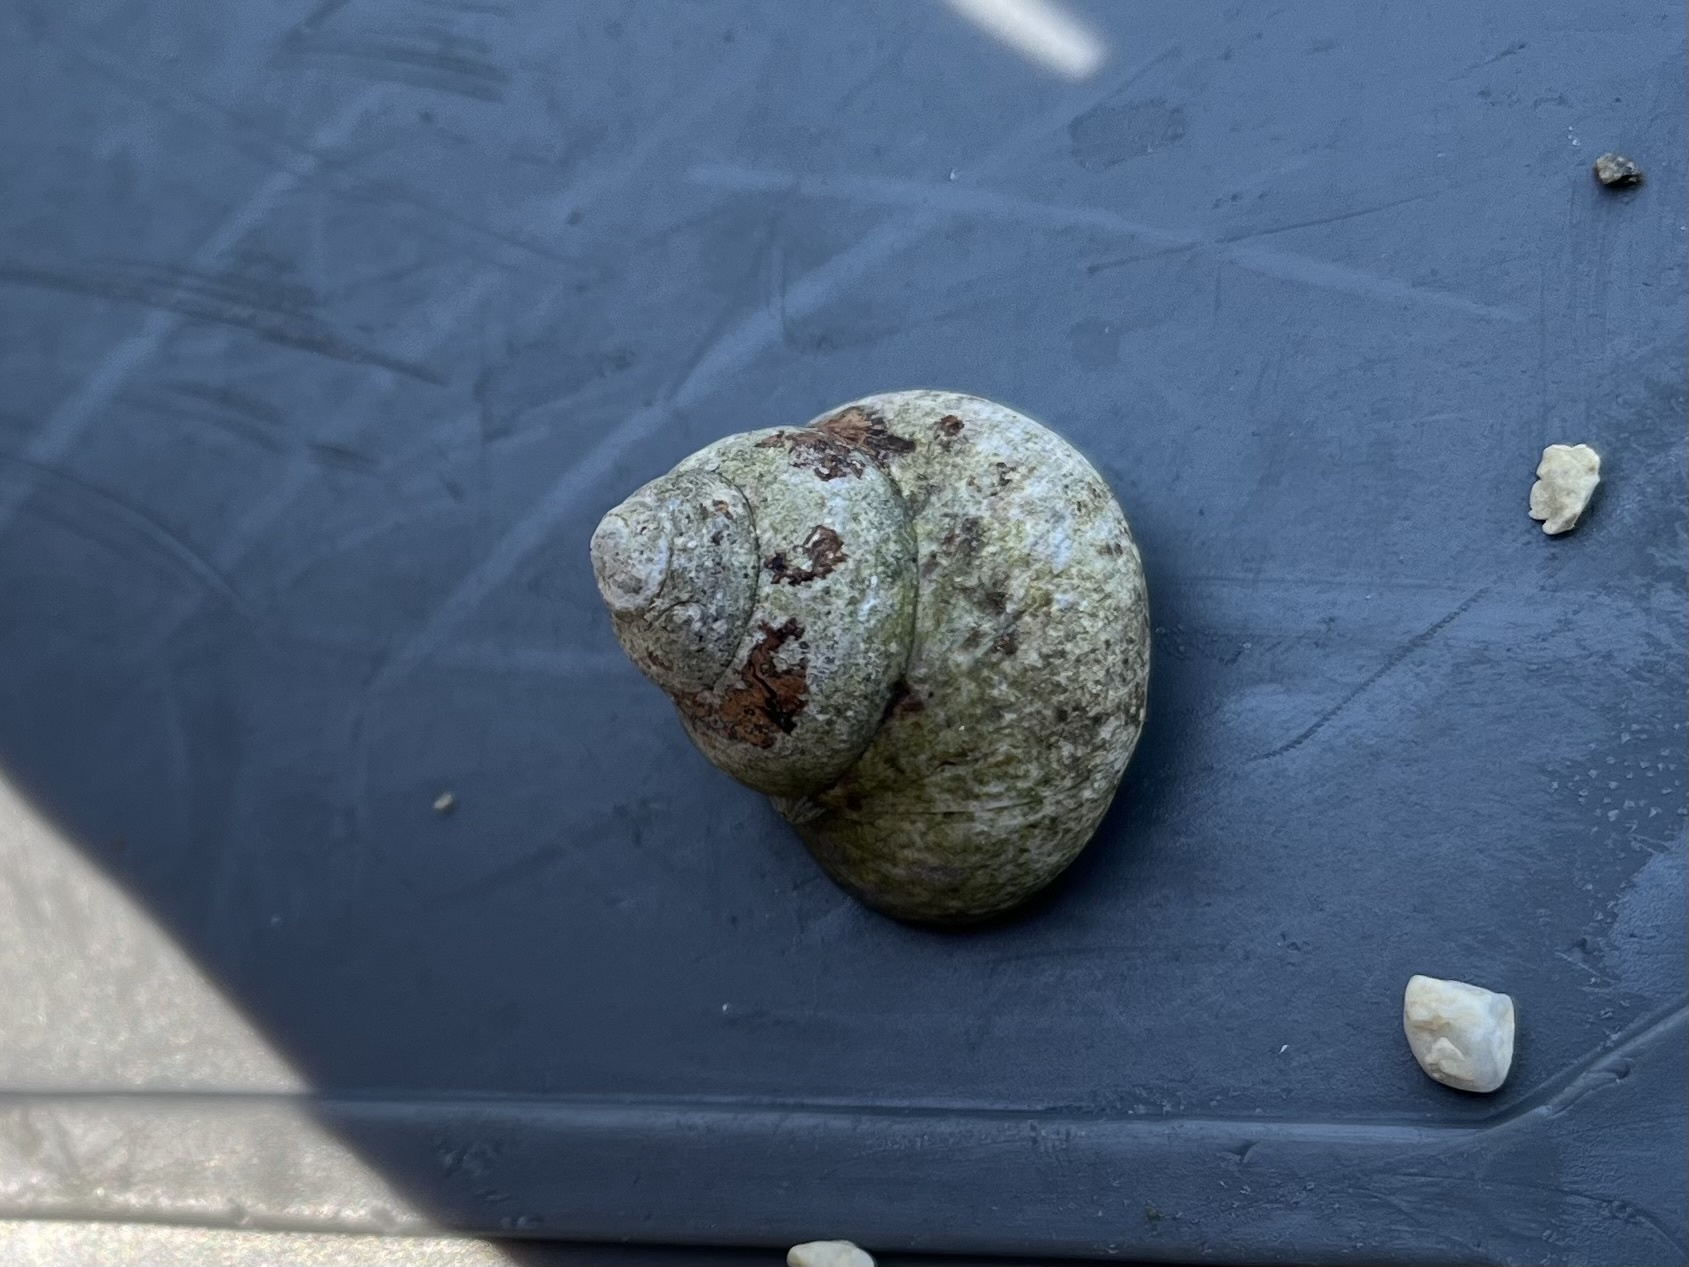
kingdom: Animalia
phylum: Mollusca
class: Gastropoda
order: Trochida
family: Trochidae
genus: Phorcus
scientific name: Phorcus articulatus
